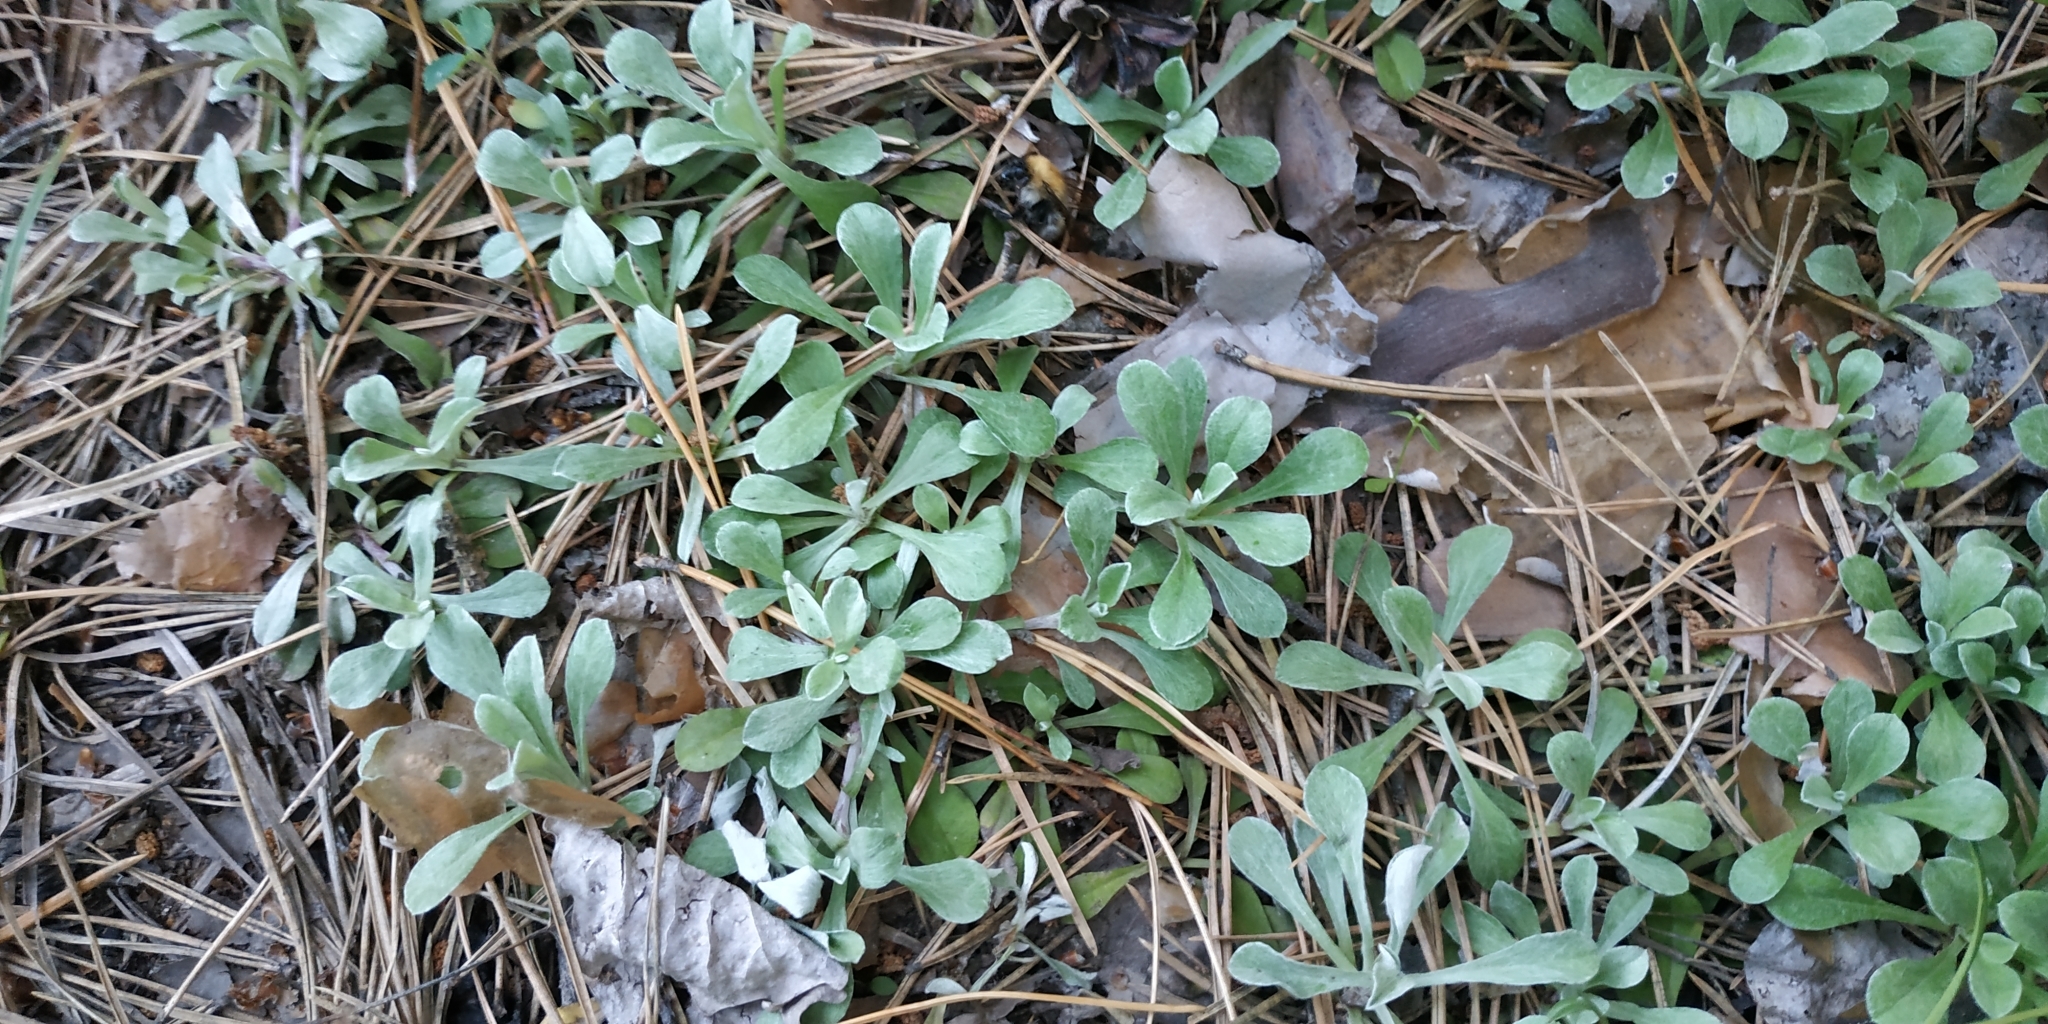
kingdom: Plantae
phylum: Tracheophyta
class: Magnoliopsida
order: Asterales
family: Asteraceae
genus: Antennaria
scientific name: Antennaria dioica
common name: Mountain everlasting
